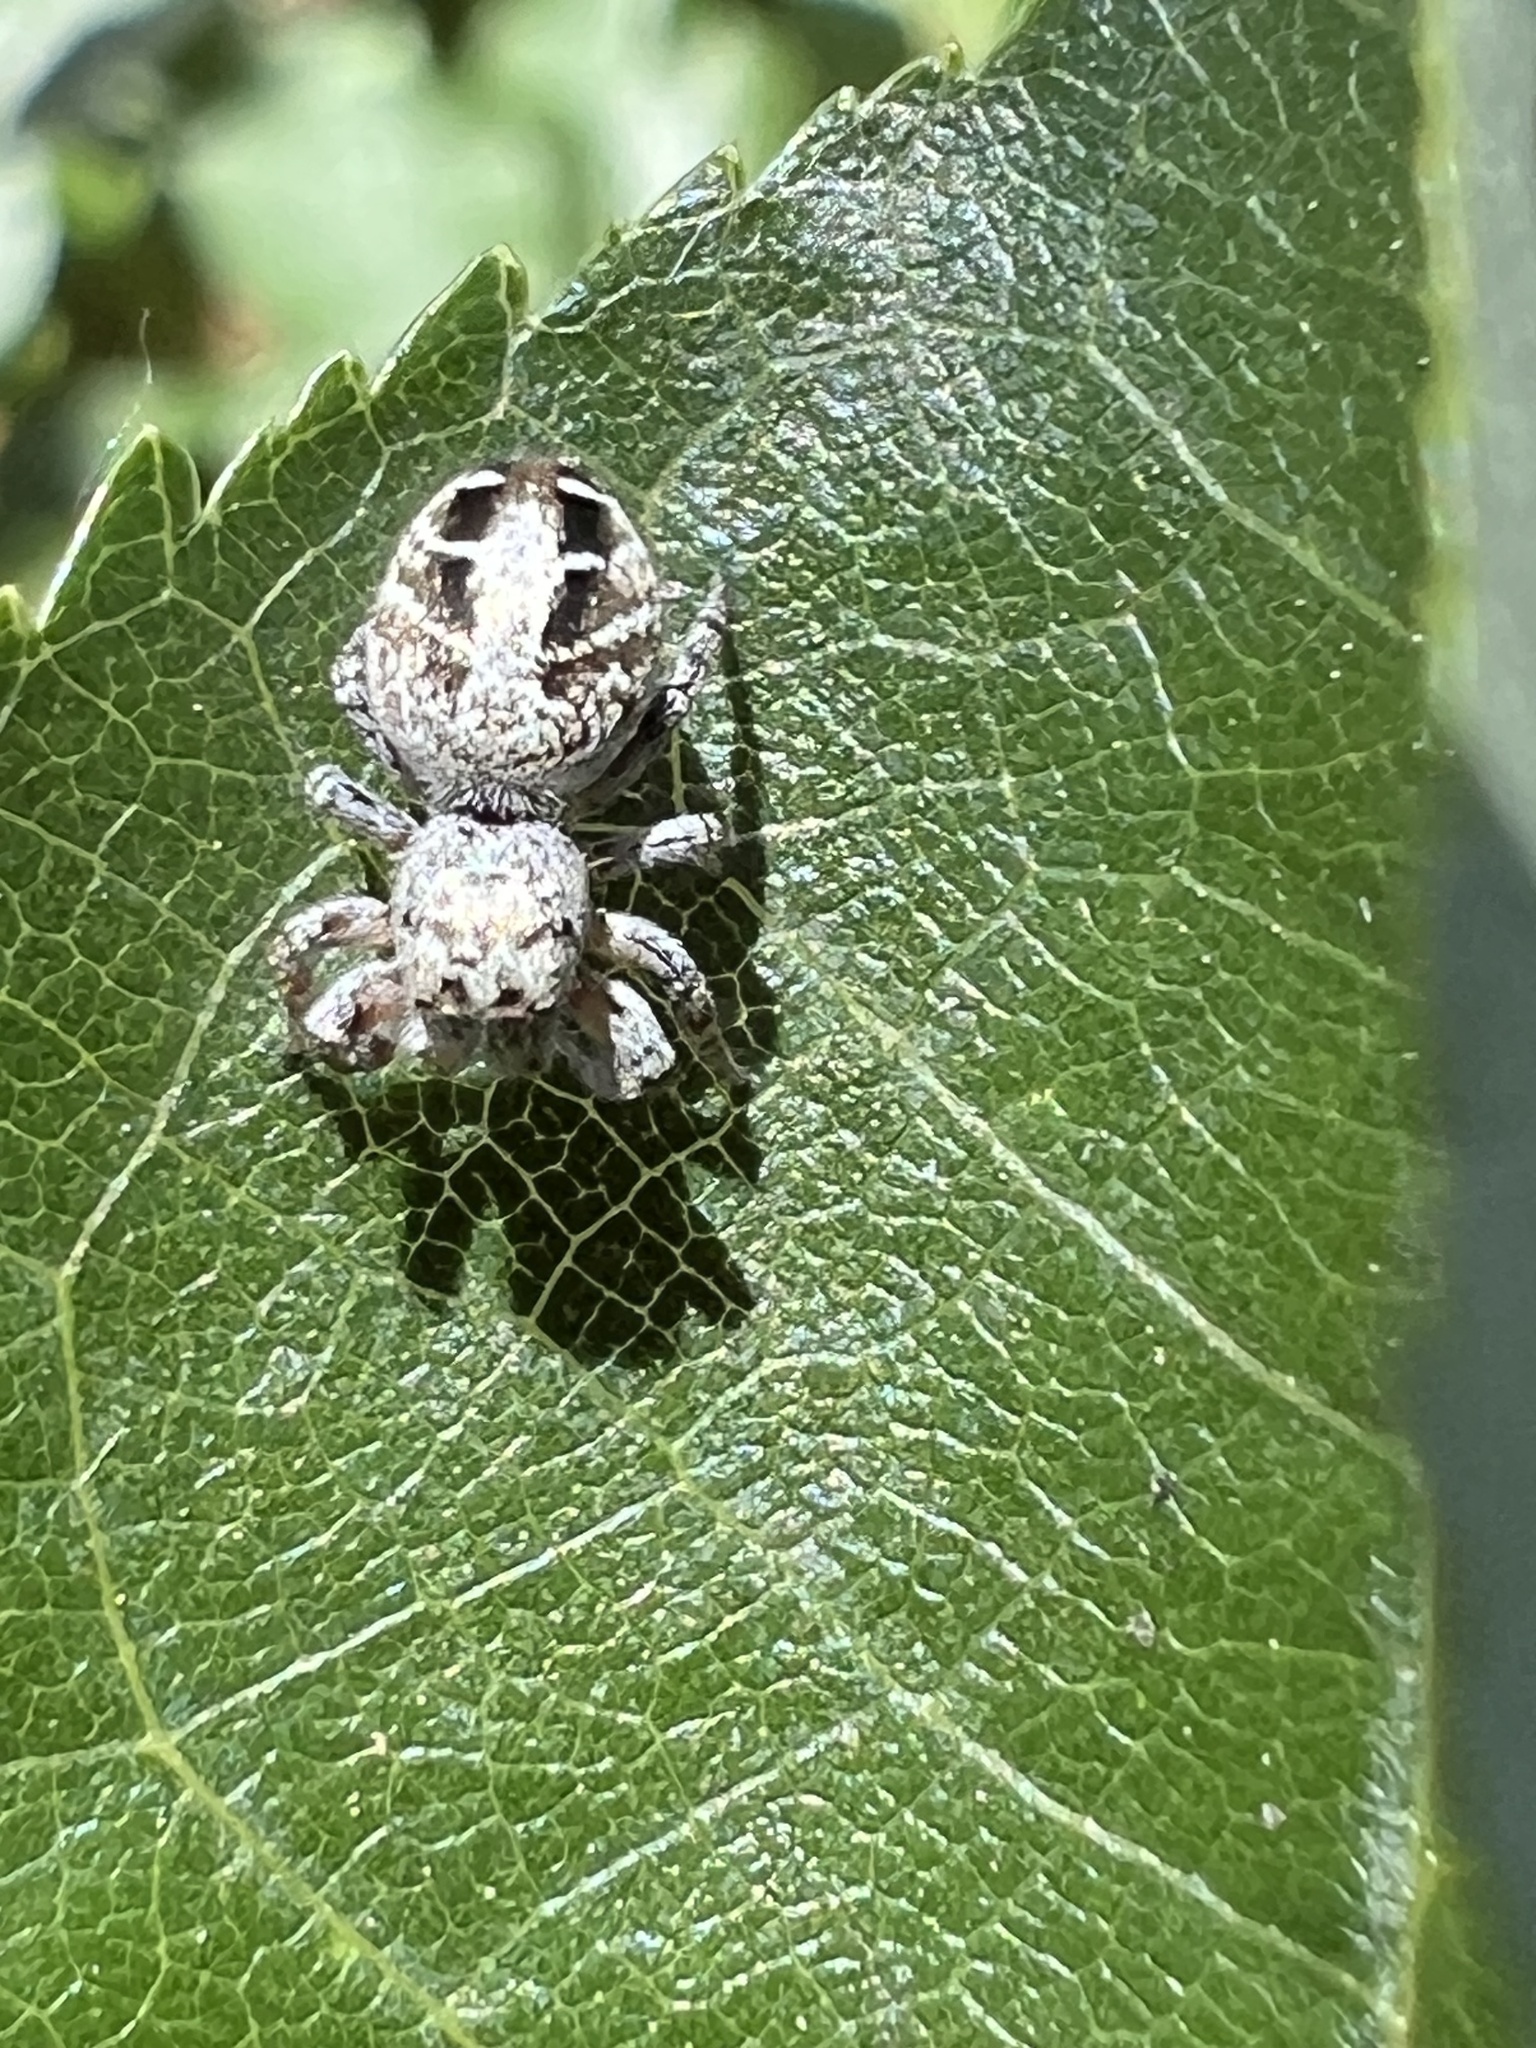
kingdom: Animalia
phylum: Arthropoda
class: Arachnida
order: Araneae
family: Salticidae
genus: Pelegrina
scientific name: Pelegrina aeneola
